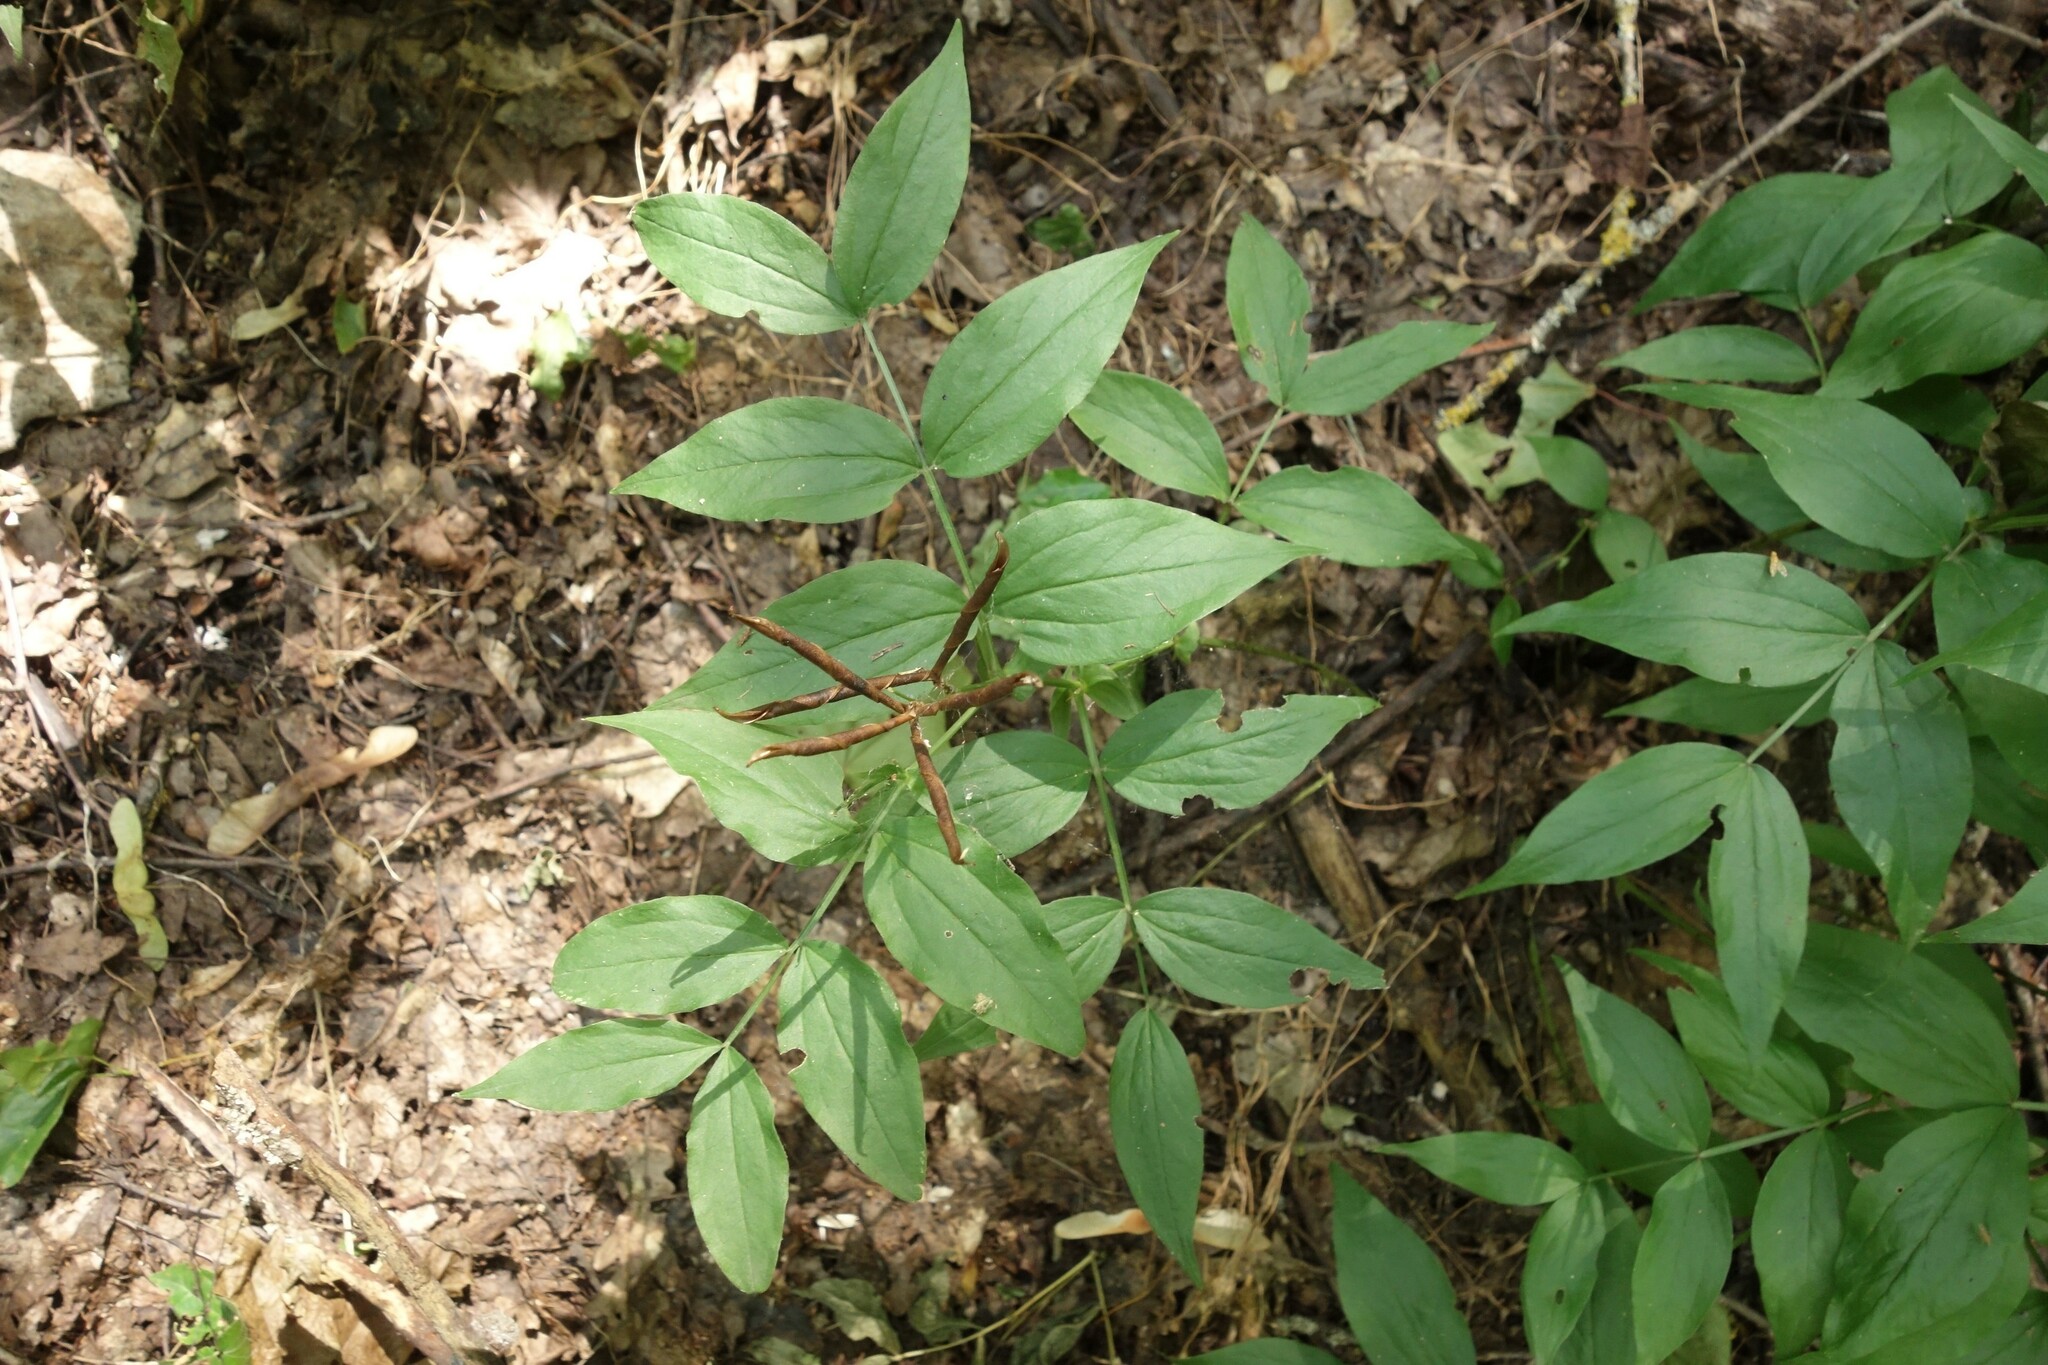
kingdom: Plantae
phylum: Tracheophyta
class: Magnoliopsida
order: Fabales
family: Fabaceae
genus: Lathyrus
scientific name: Lathyrus vernus
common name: Spring pea
